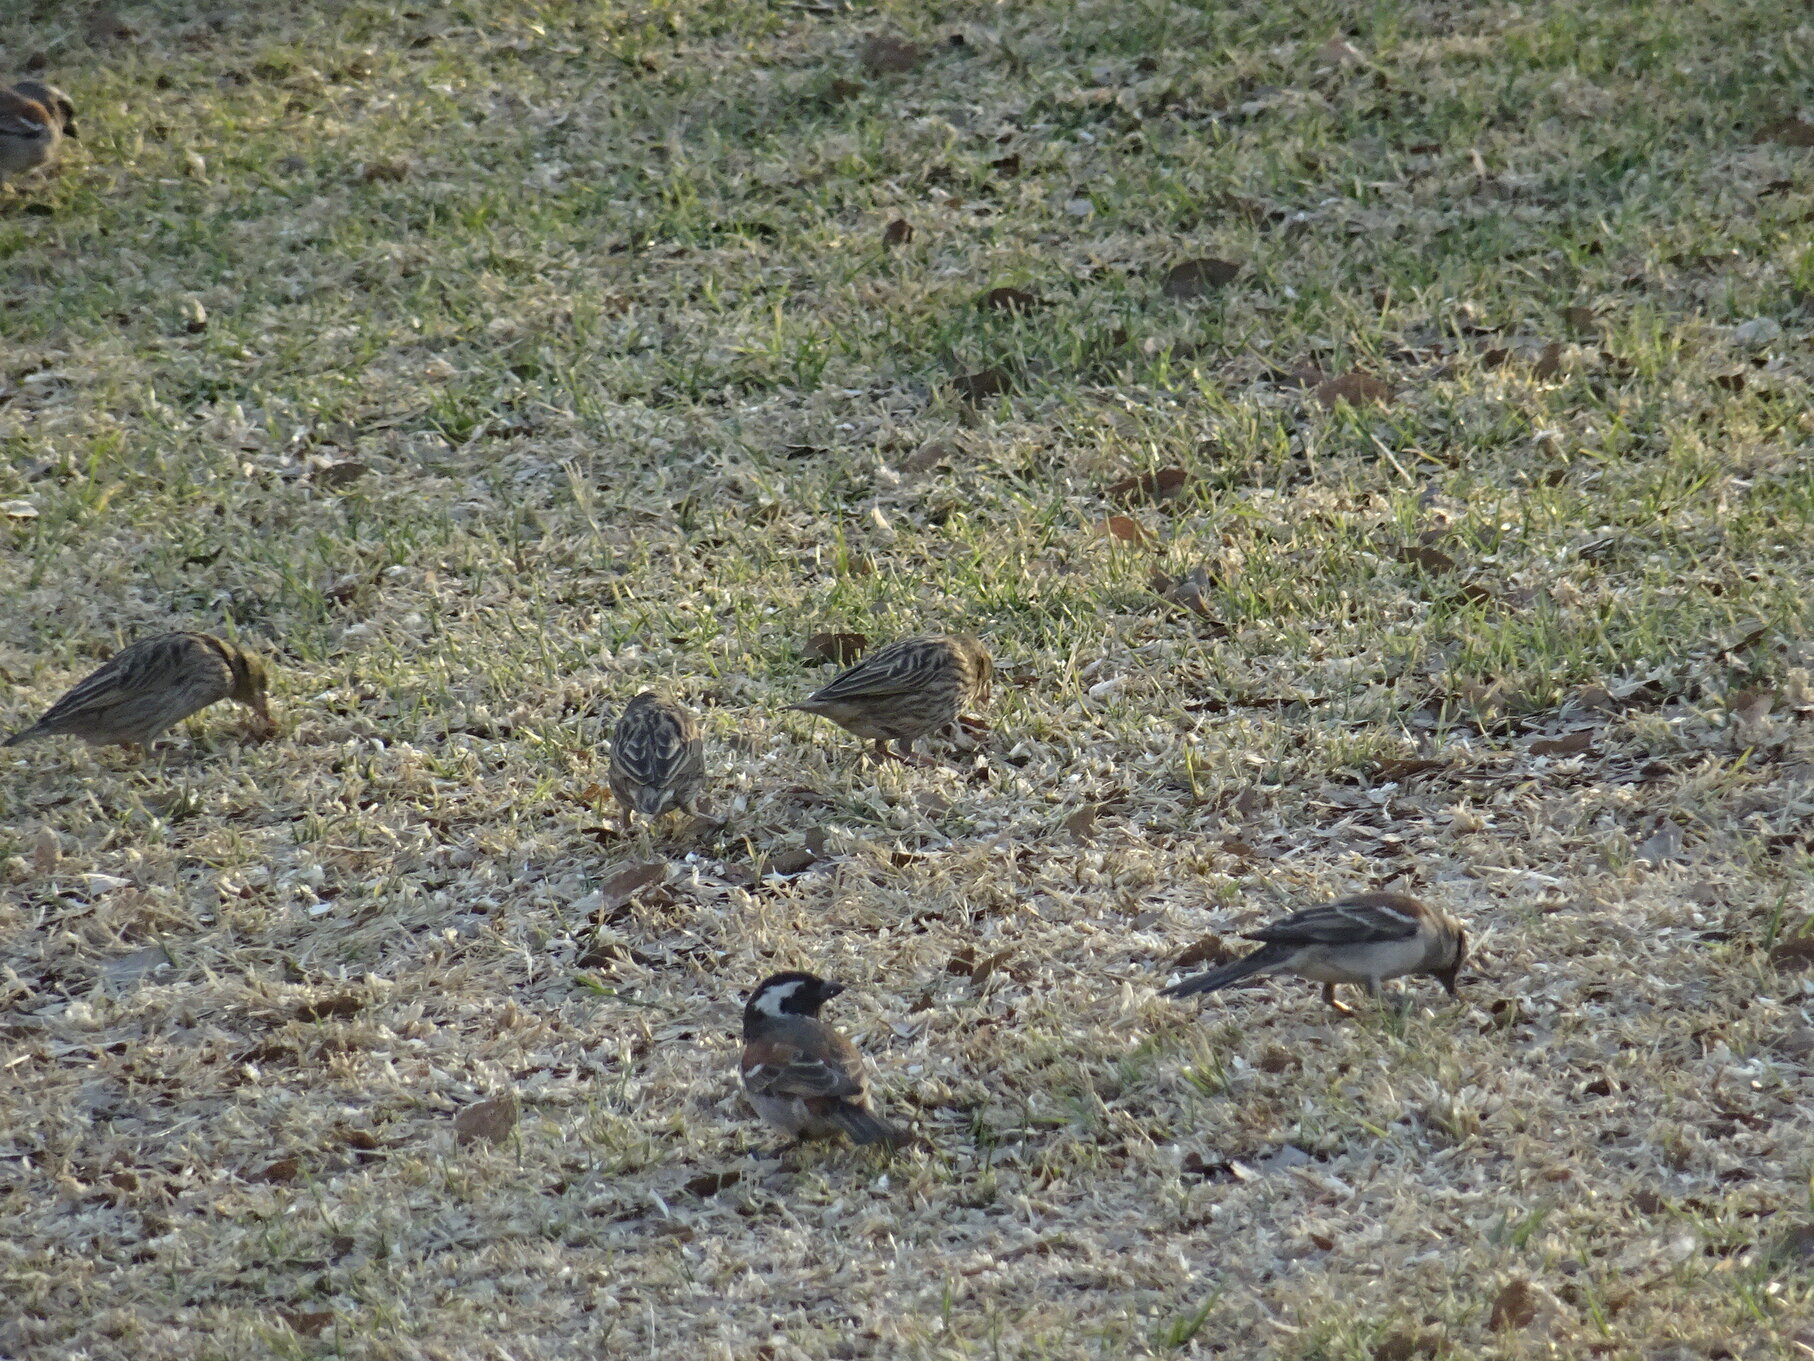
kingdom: Animalia
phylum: Chordata
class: Aves
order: Passeriformes
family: Passeridae
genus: Passer
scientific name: Passer melanurus
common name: Cape sparrow
